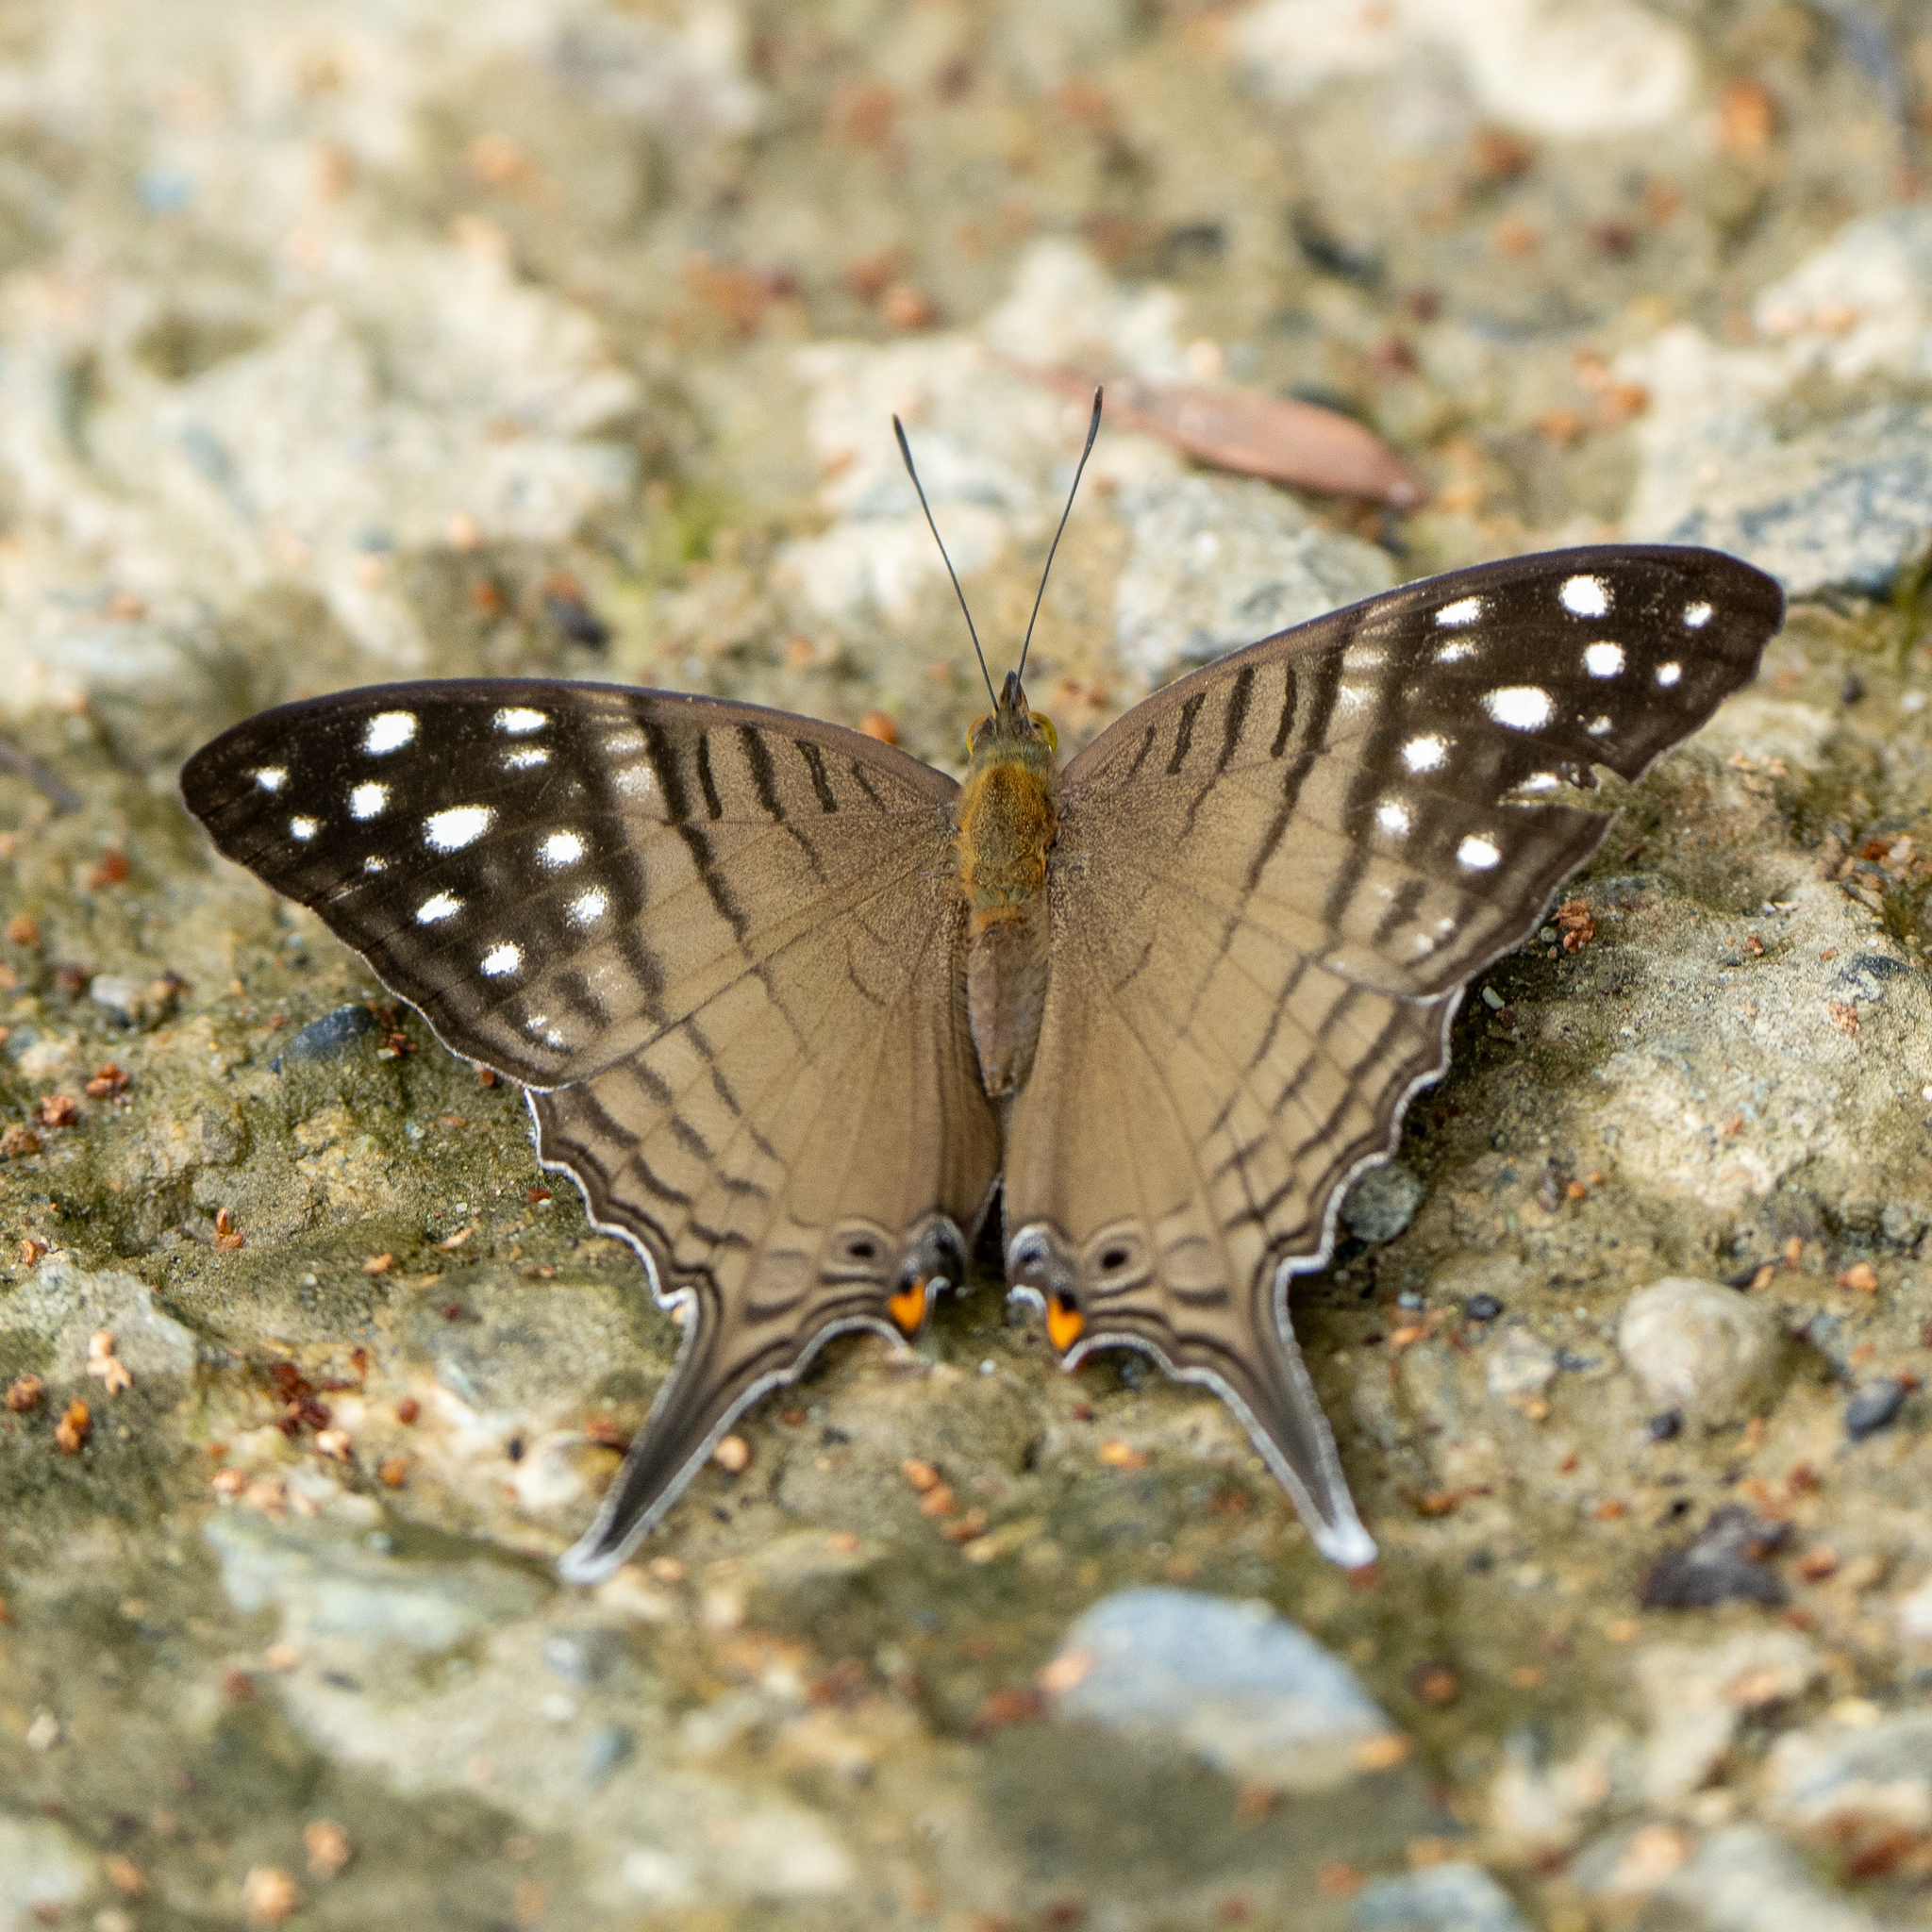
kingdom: Animalia
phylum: Arthropoda
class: Insecta
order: Lepidoptera
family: Nymphalidae
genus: Marpesia
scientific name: Marpesia merops
